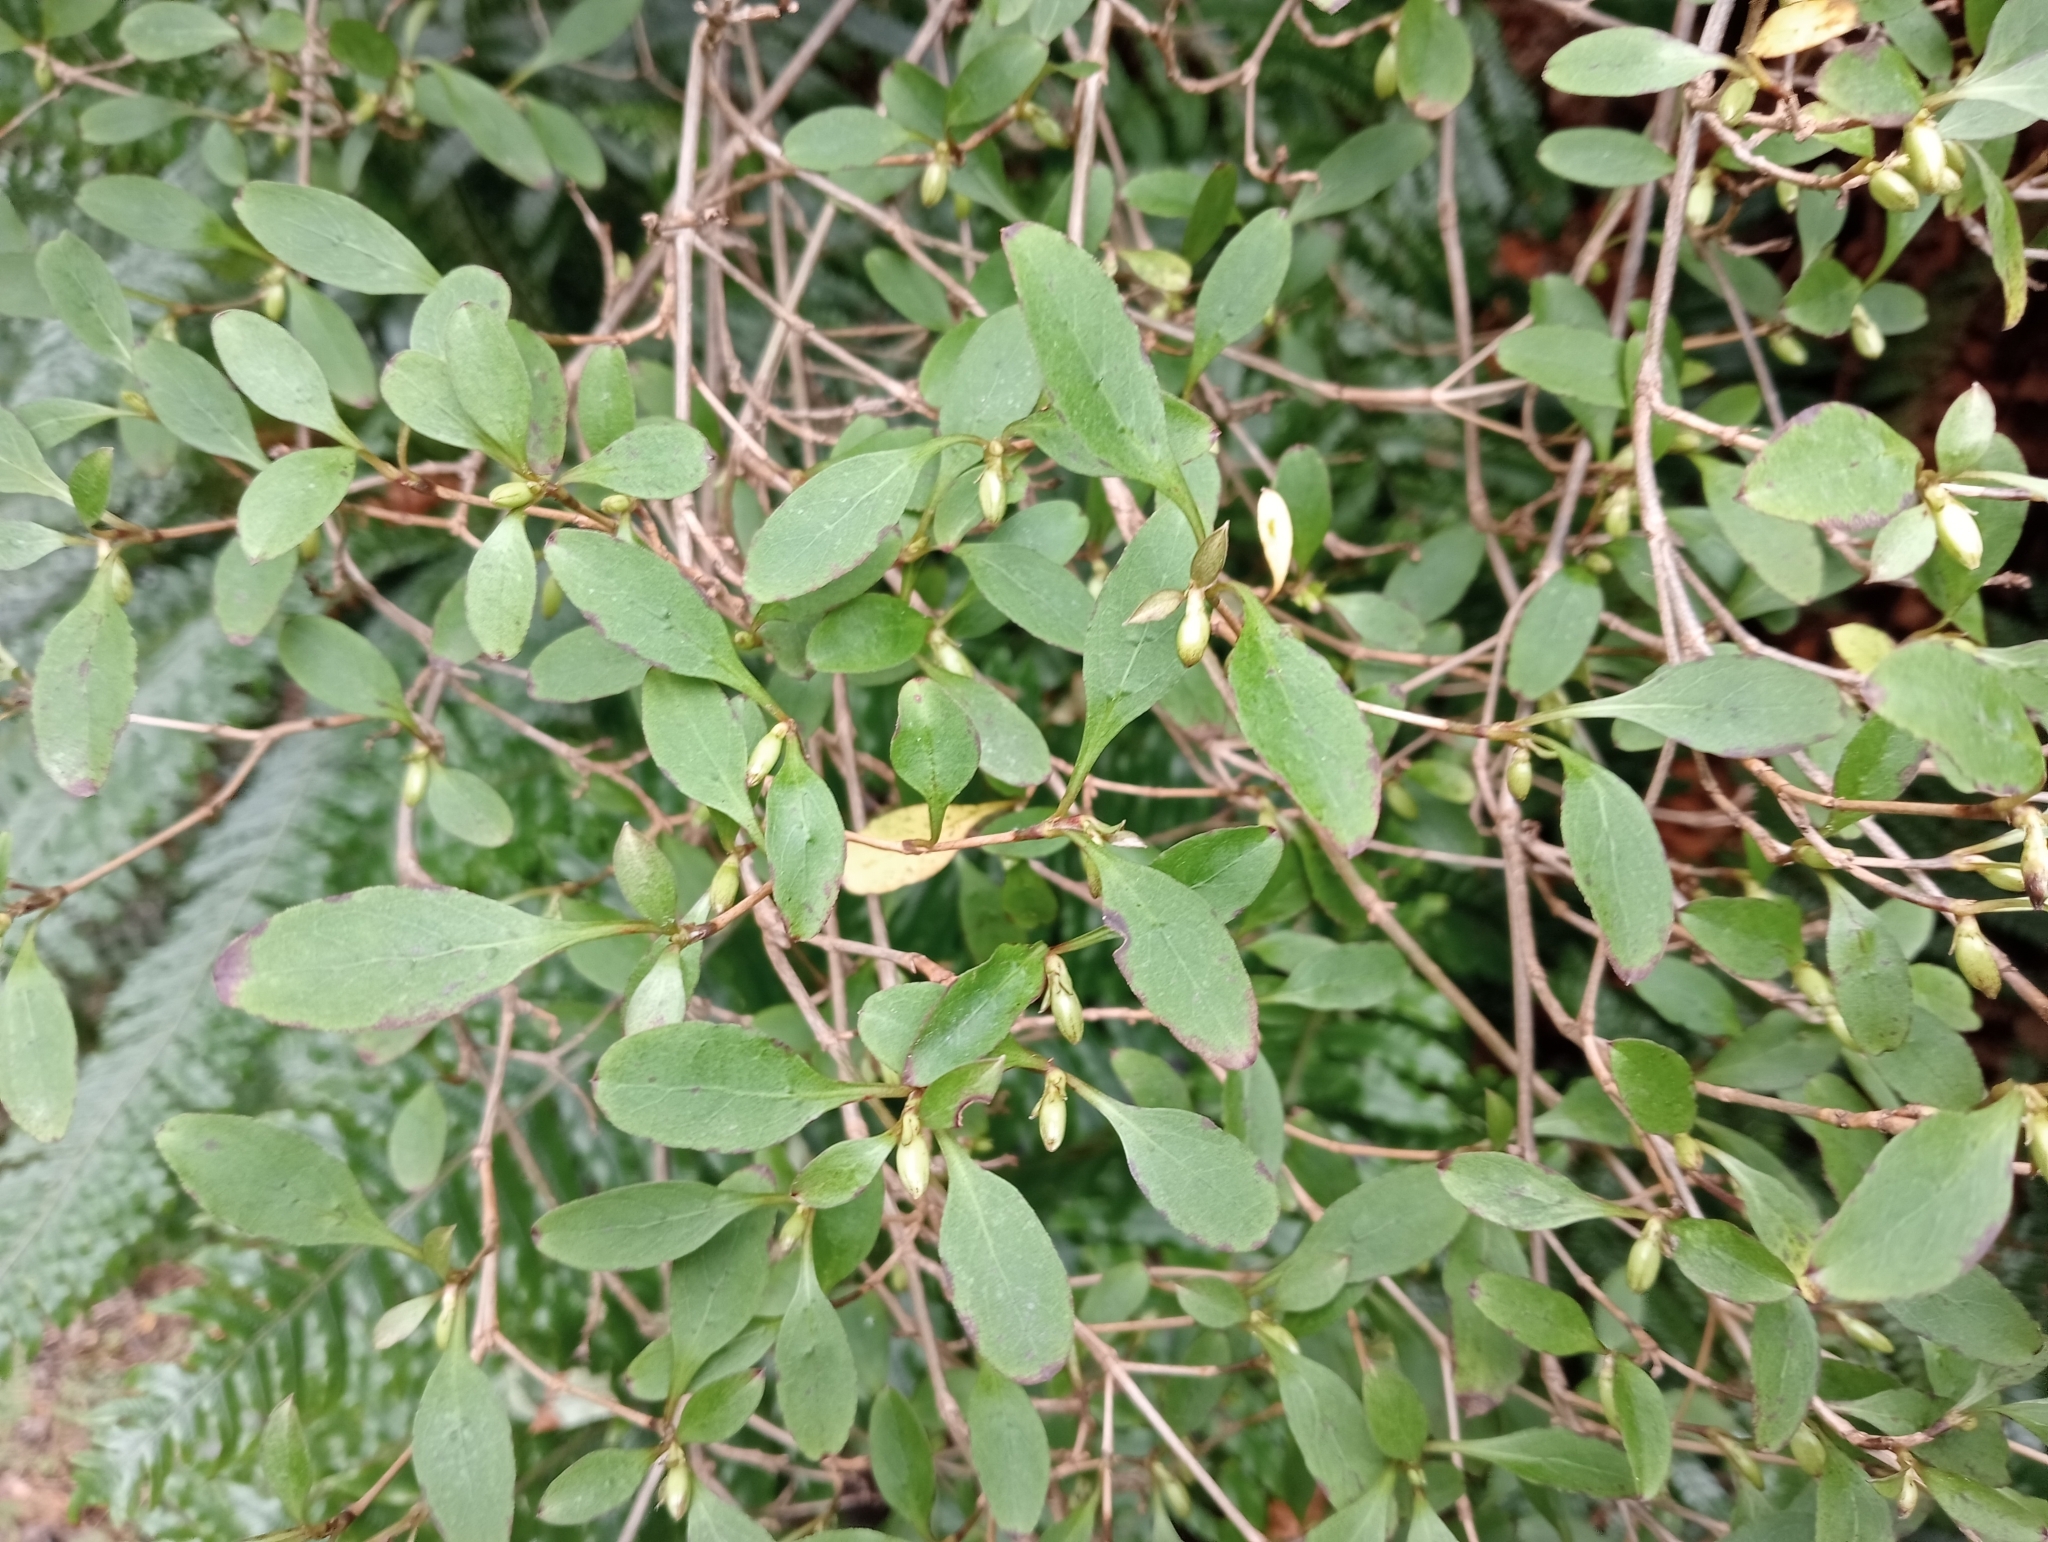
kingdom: Plantae
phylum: Tracheophyta
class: Magnoliopsida
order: Gentianales
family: Rubiaceae
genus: Coprosma
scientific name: Coprosma foetidissima
